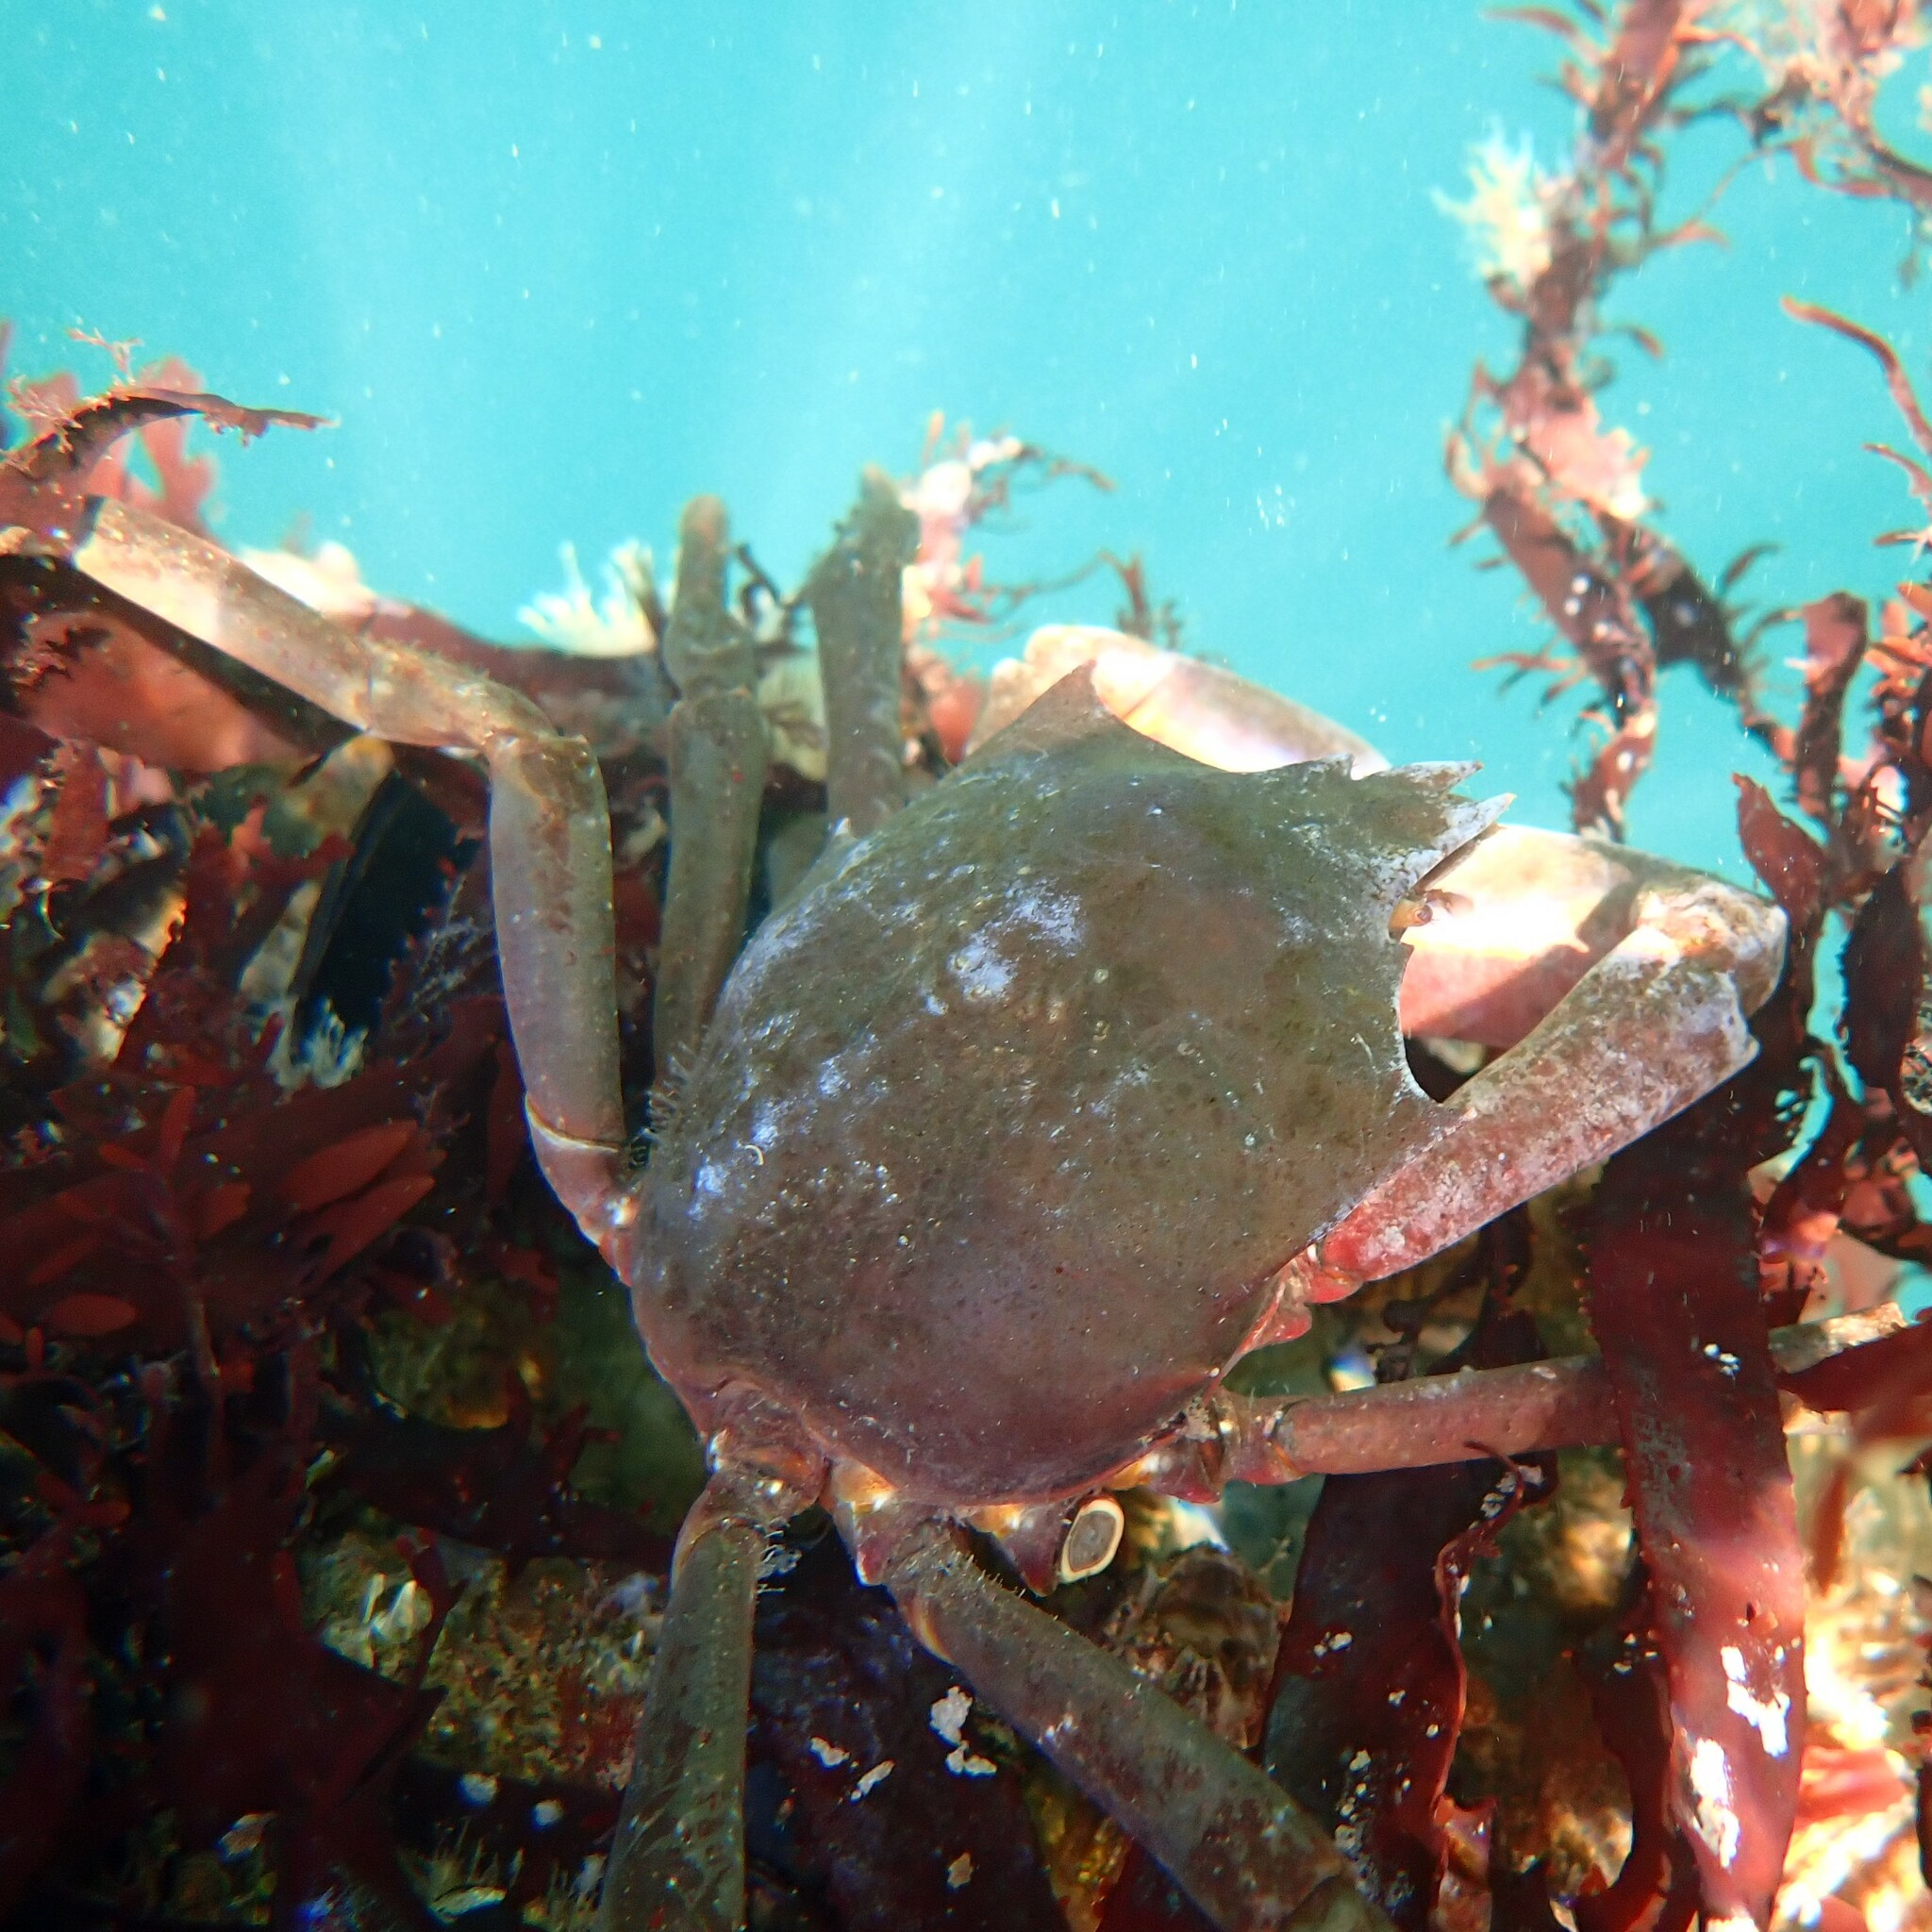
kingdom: Animalia
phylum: Arthropoda
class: Malacostraca
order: Decapoda
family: Epialtidae
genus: Pugettia
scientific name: Pugettia producta
